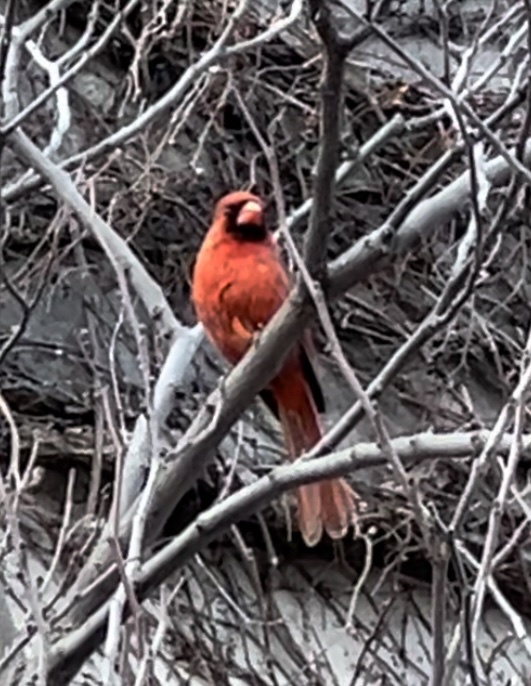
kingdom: Animalia
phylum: Chordata
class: Aves
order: Passeriformes
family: Cardinalidae
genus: Cardinalis
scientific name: Cardinalis cardinalis
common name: Northern cardinal
